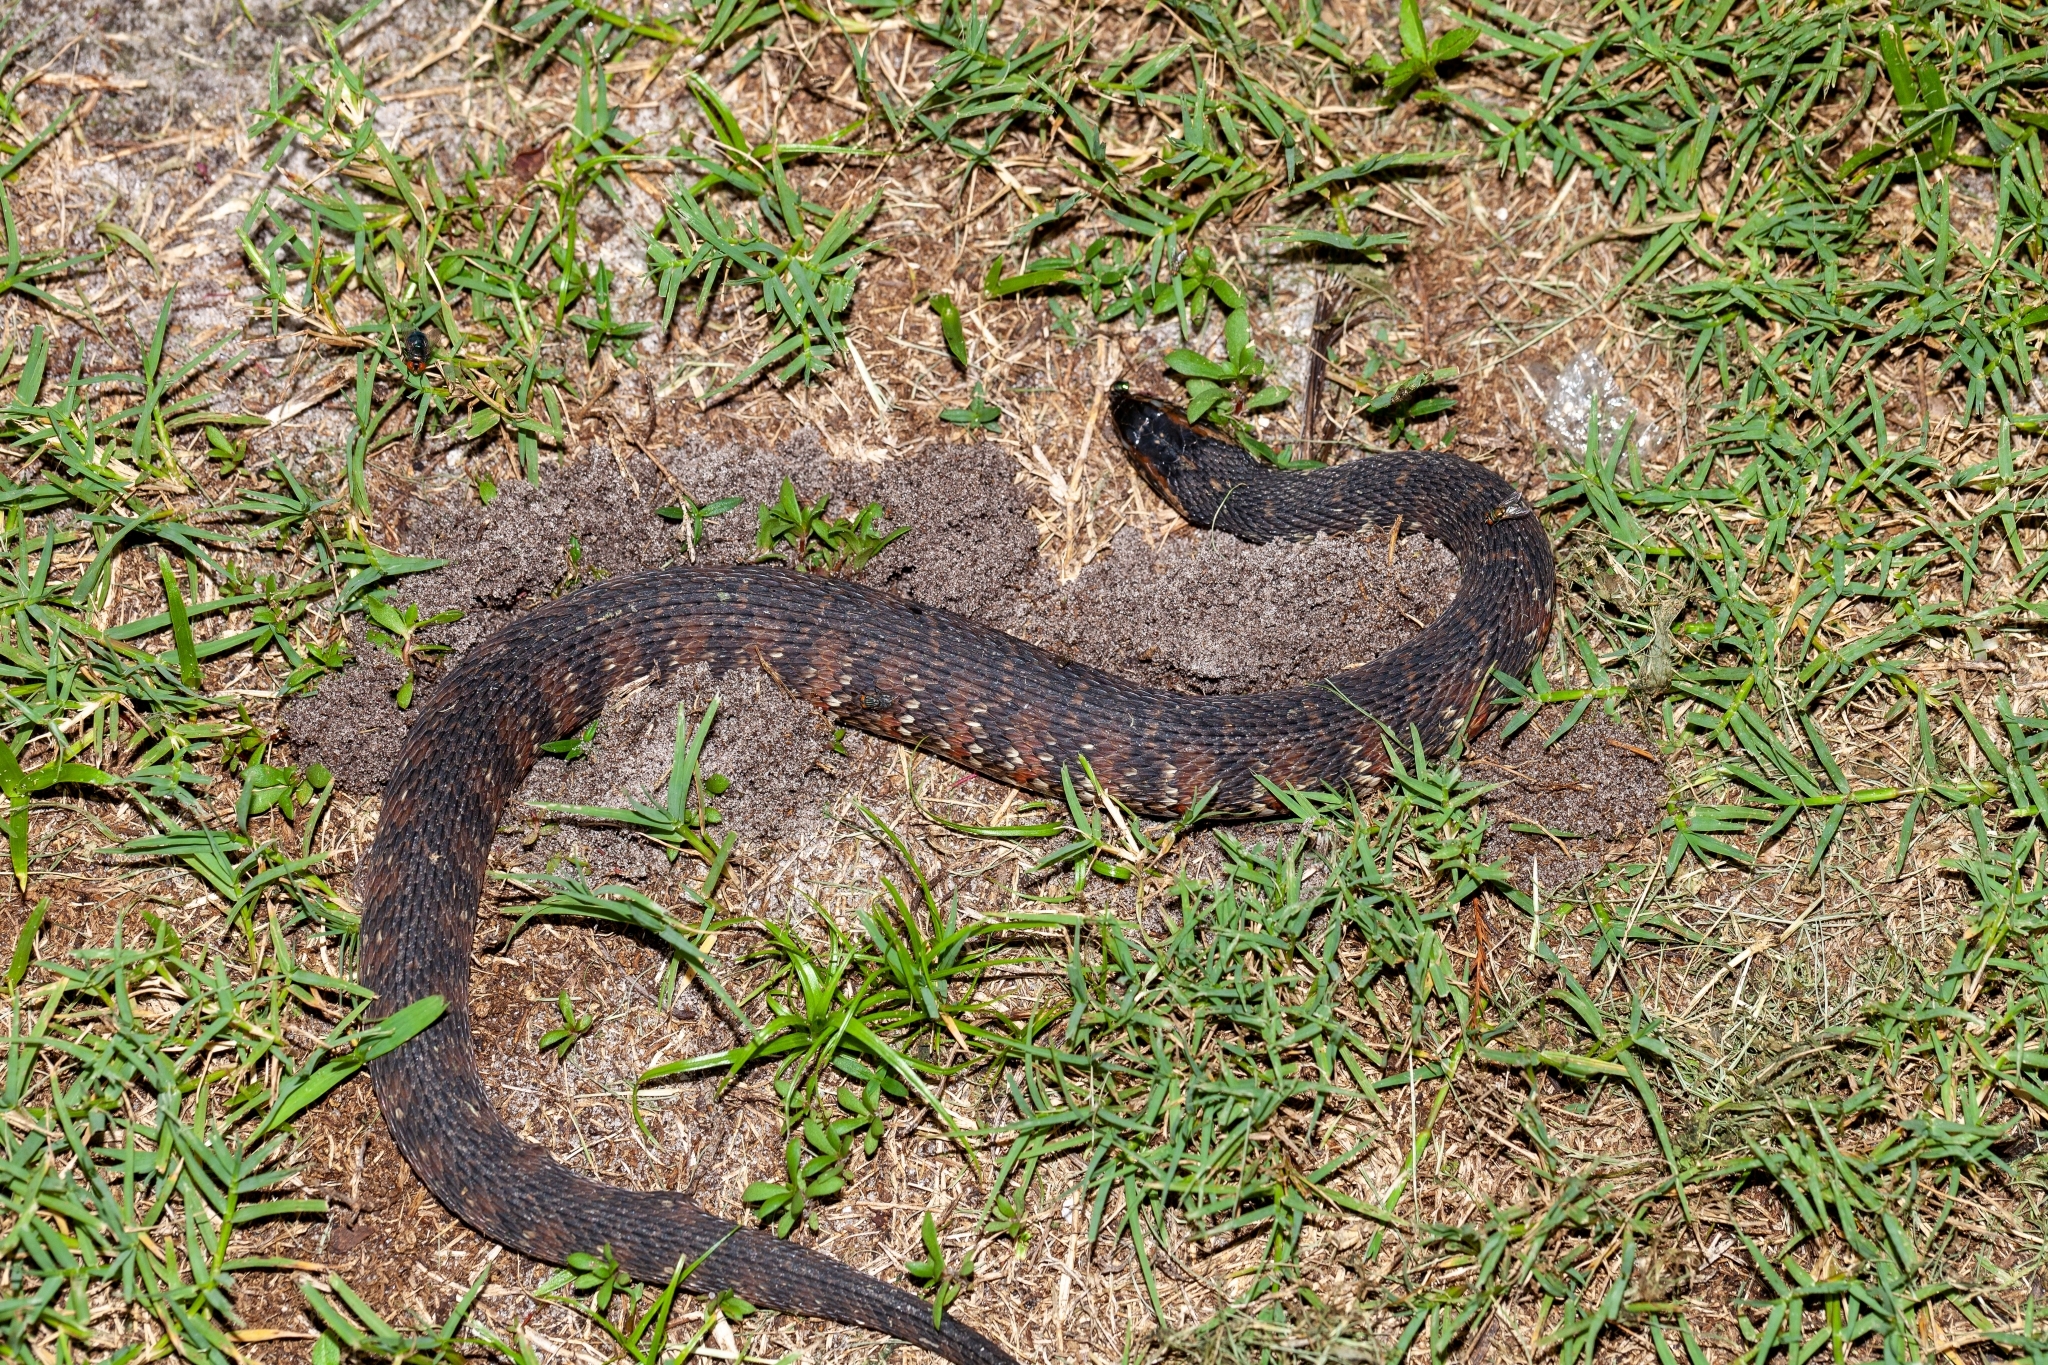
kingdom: Animalia
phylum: Chordata
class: Squamata
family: Colubridae
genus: Nerodia
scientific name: Nerodia fasciata
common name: Southern water snake
